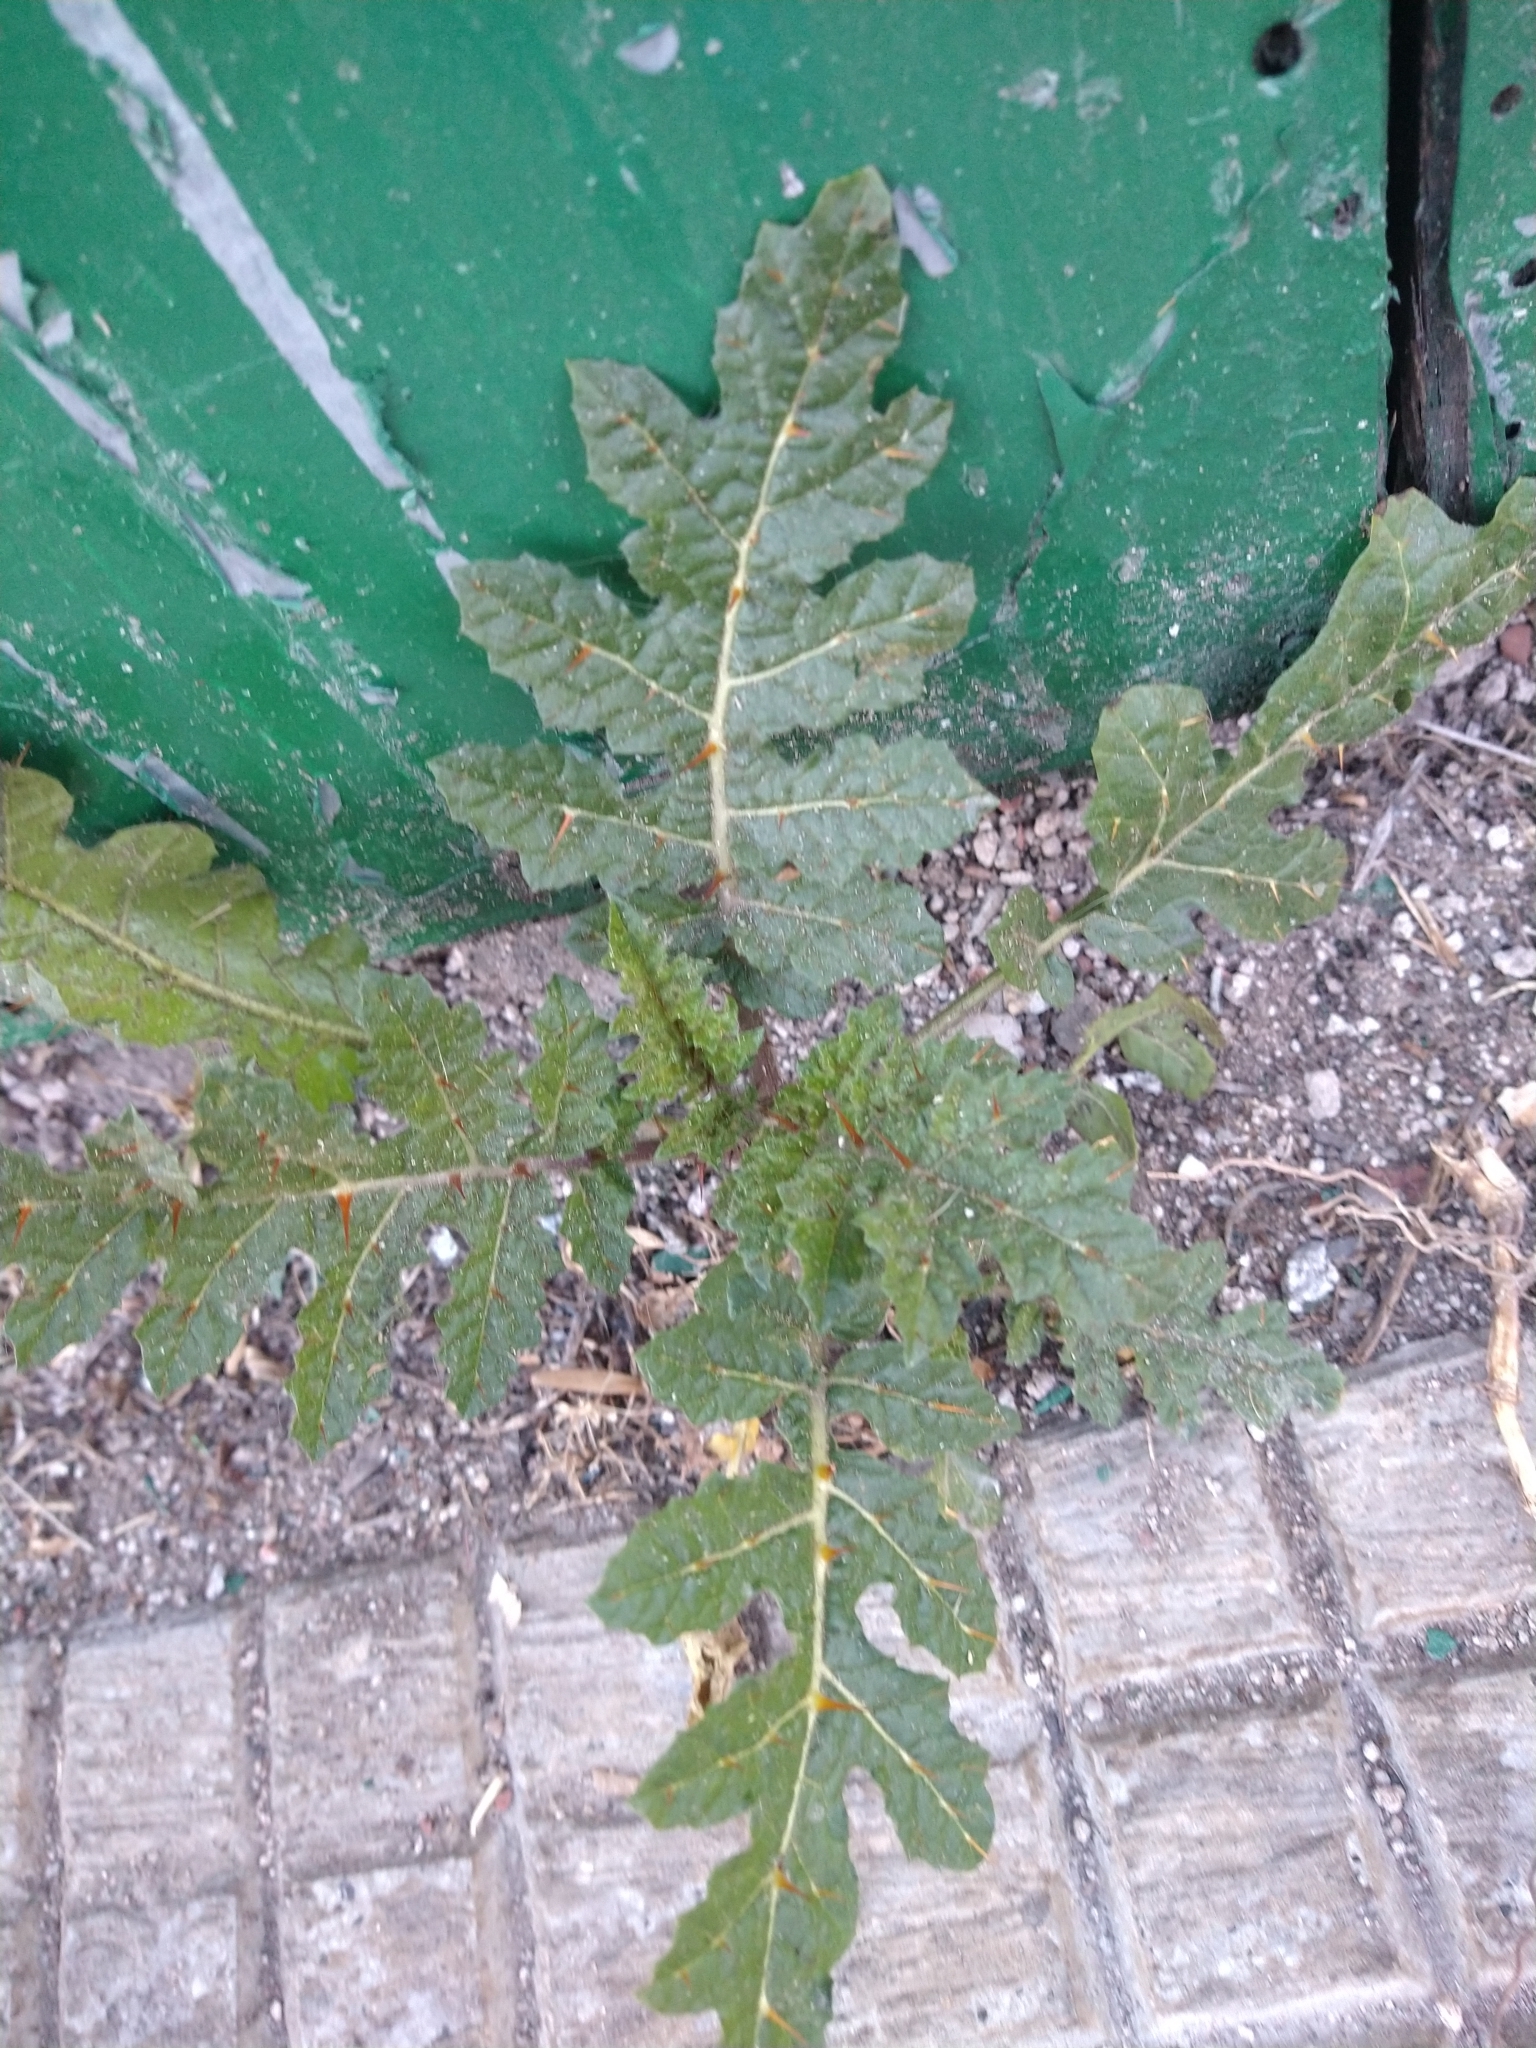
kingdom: Plantae
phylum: Tracheophyta
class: Magnoliopsida
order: Solanales
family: Solanaceae
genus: Solanum
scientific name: Solanum sisymbriifolium
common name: Red buffalo-bur
